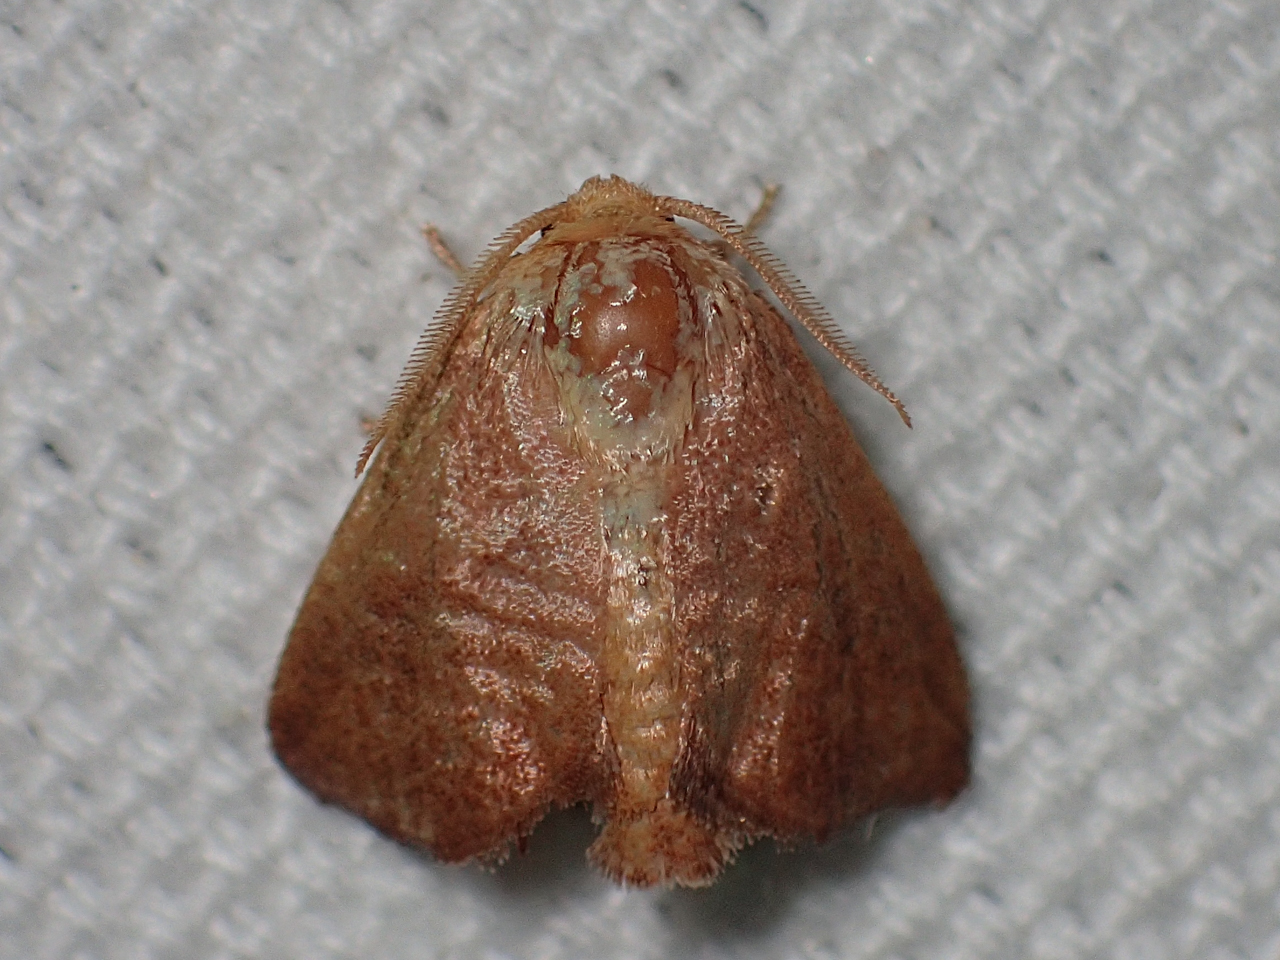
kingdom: Animalia
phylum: Arthropoda
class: Insecta
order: Lepidoptera
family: Limacodidae
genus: Isa
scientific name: Isa textula
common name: Crowned slug moth
